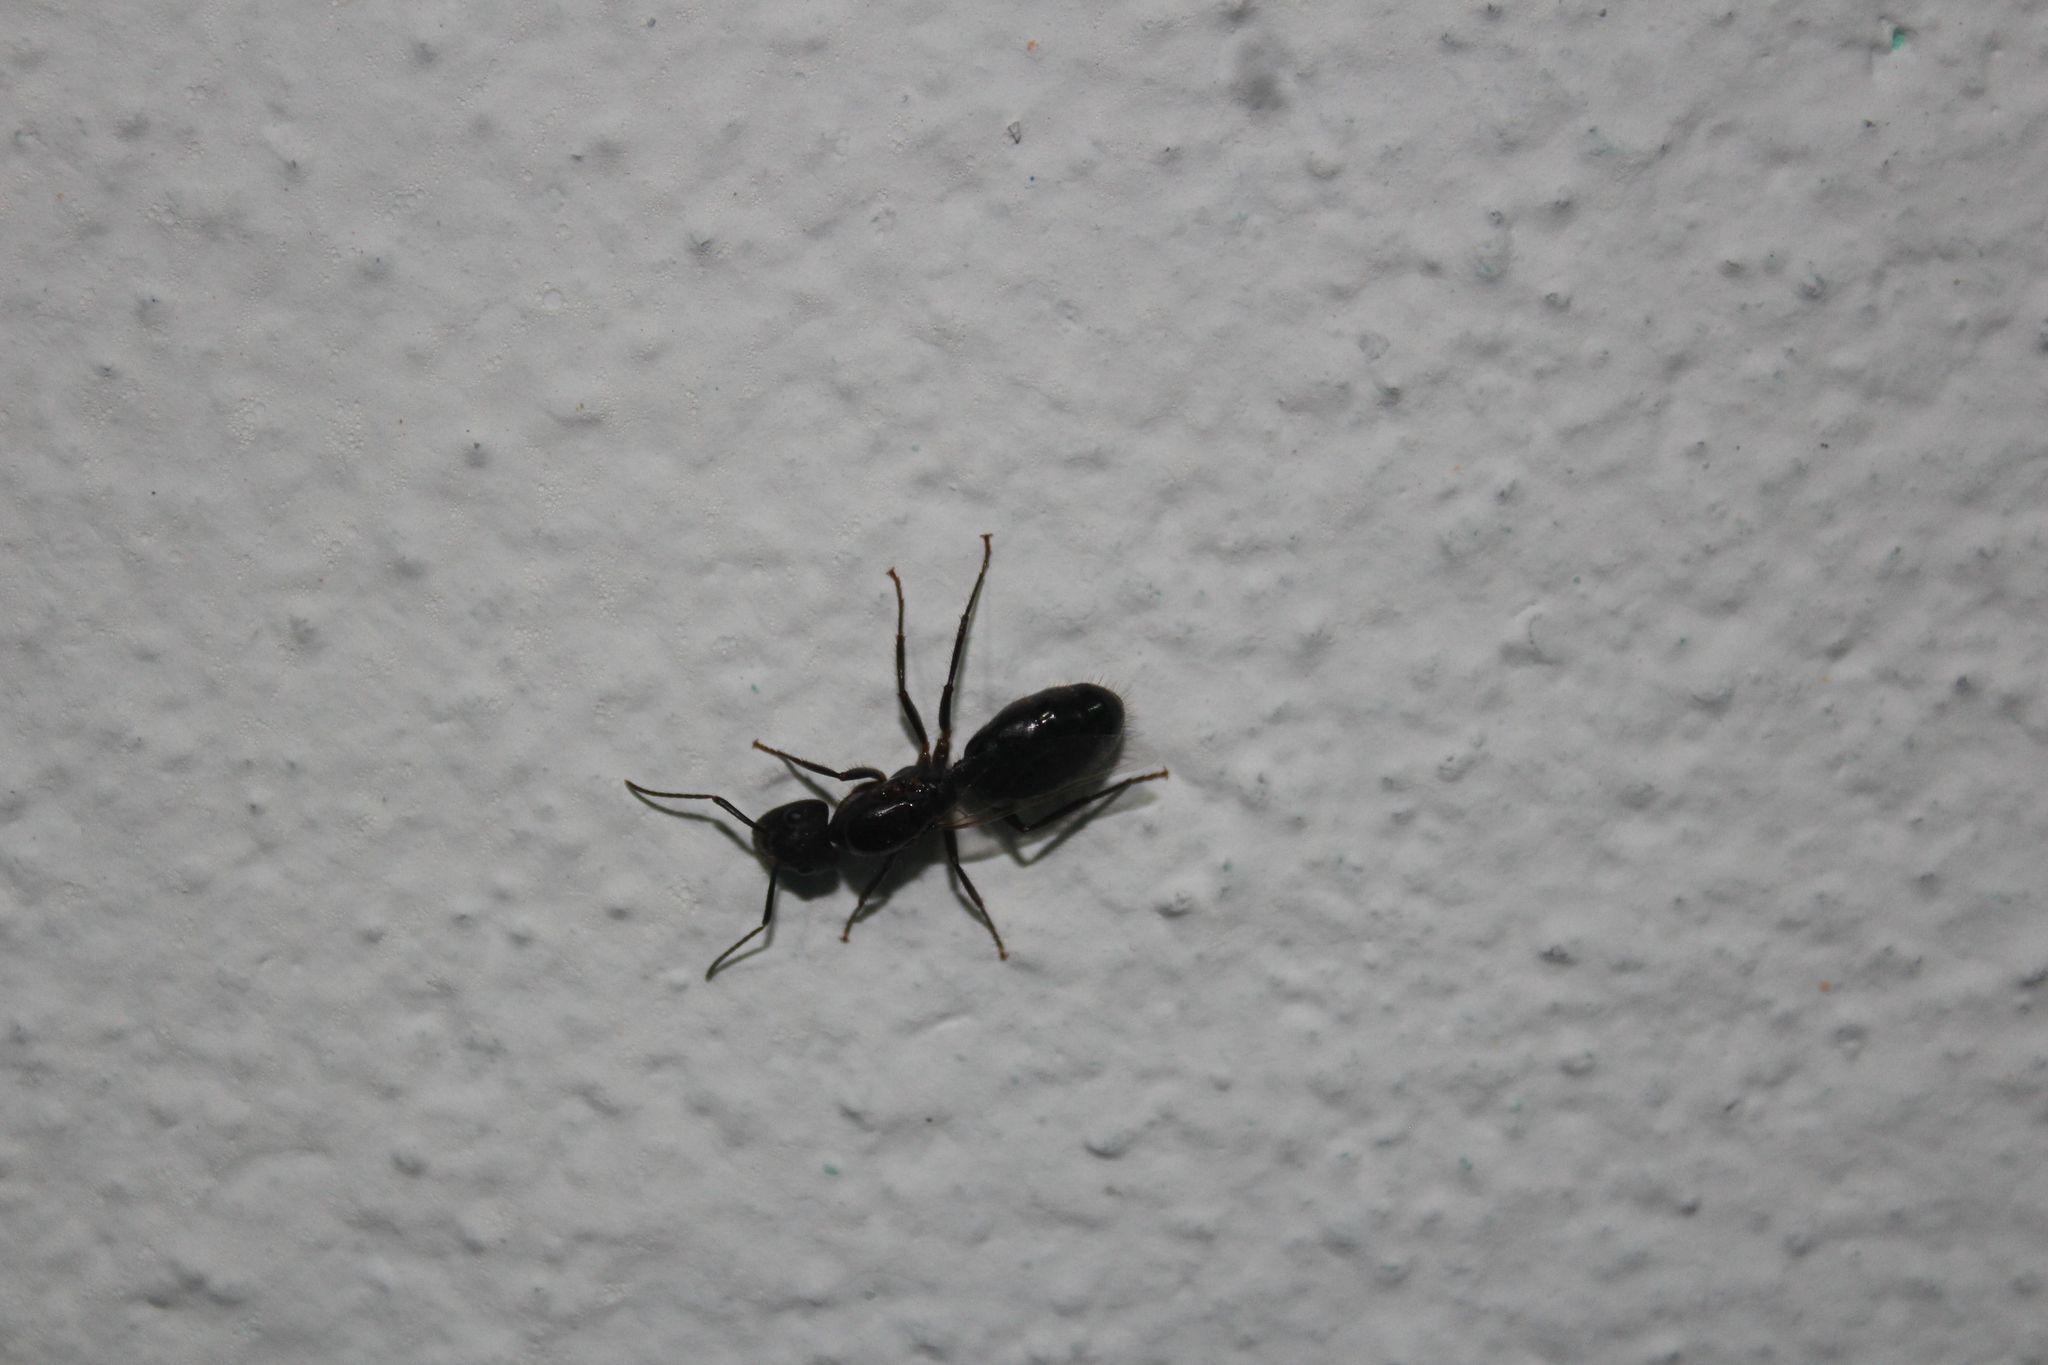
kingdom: Animalia
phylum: Arthropoda
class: Insecta
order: Hymenoptera
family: Formicidae
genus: Camponotus
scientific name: Camponotus atriceps
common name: Florida carpenter ant
